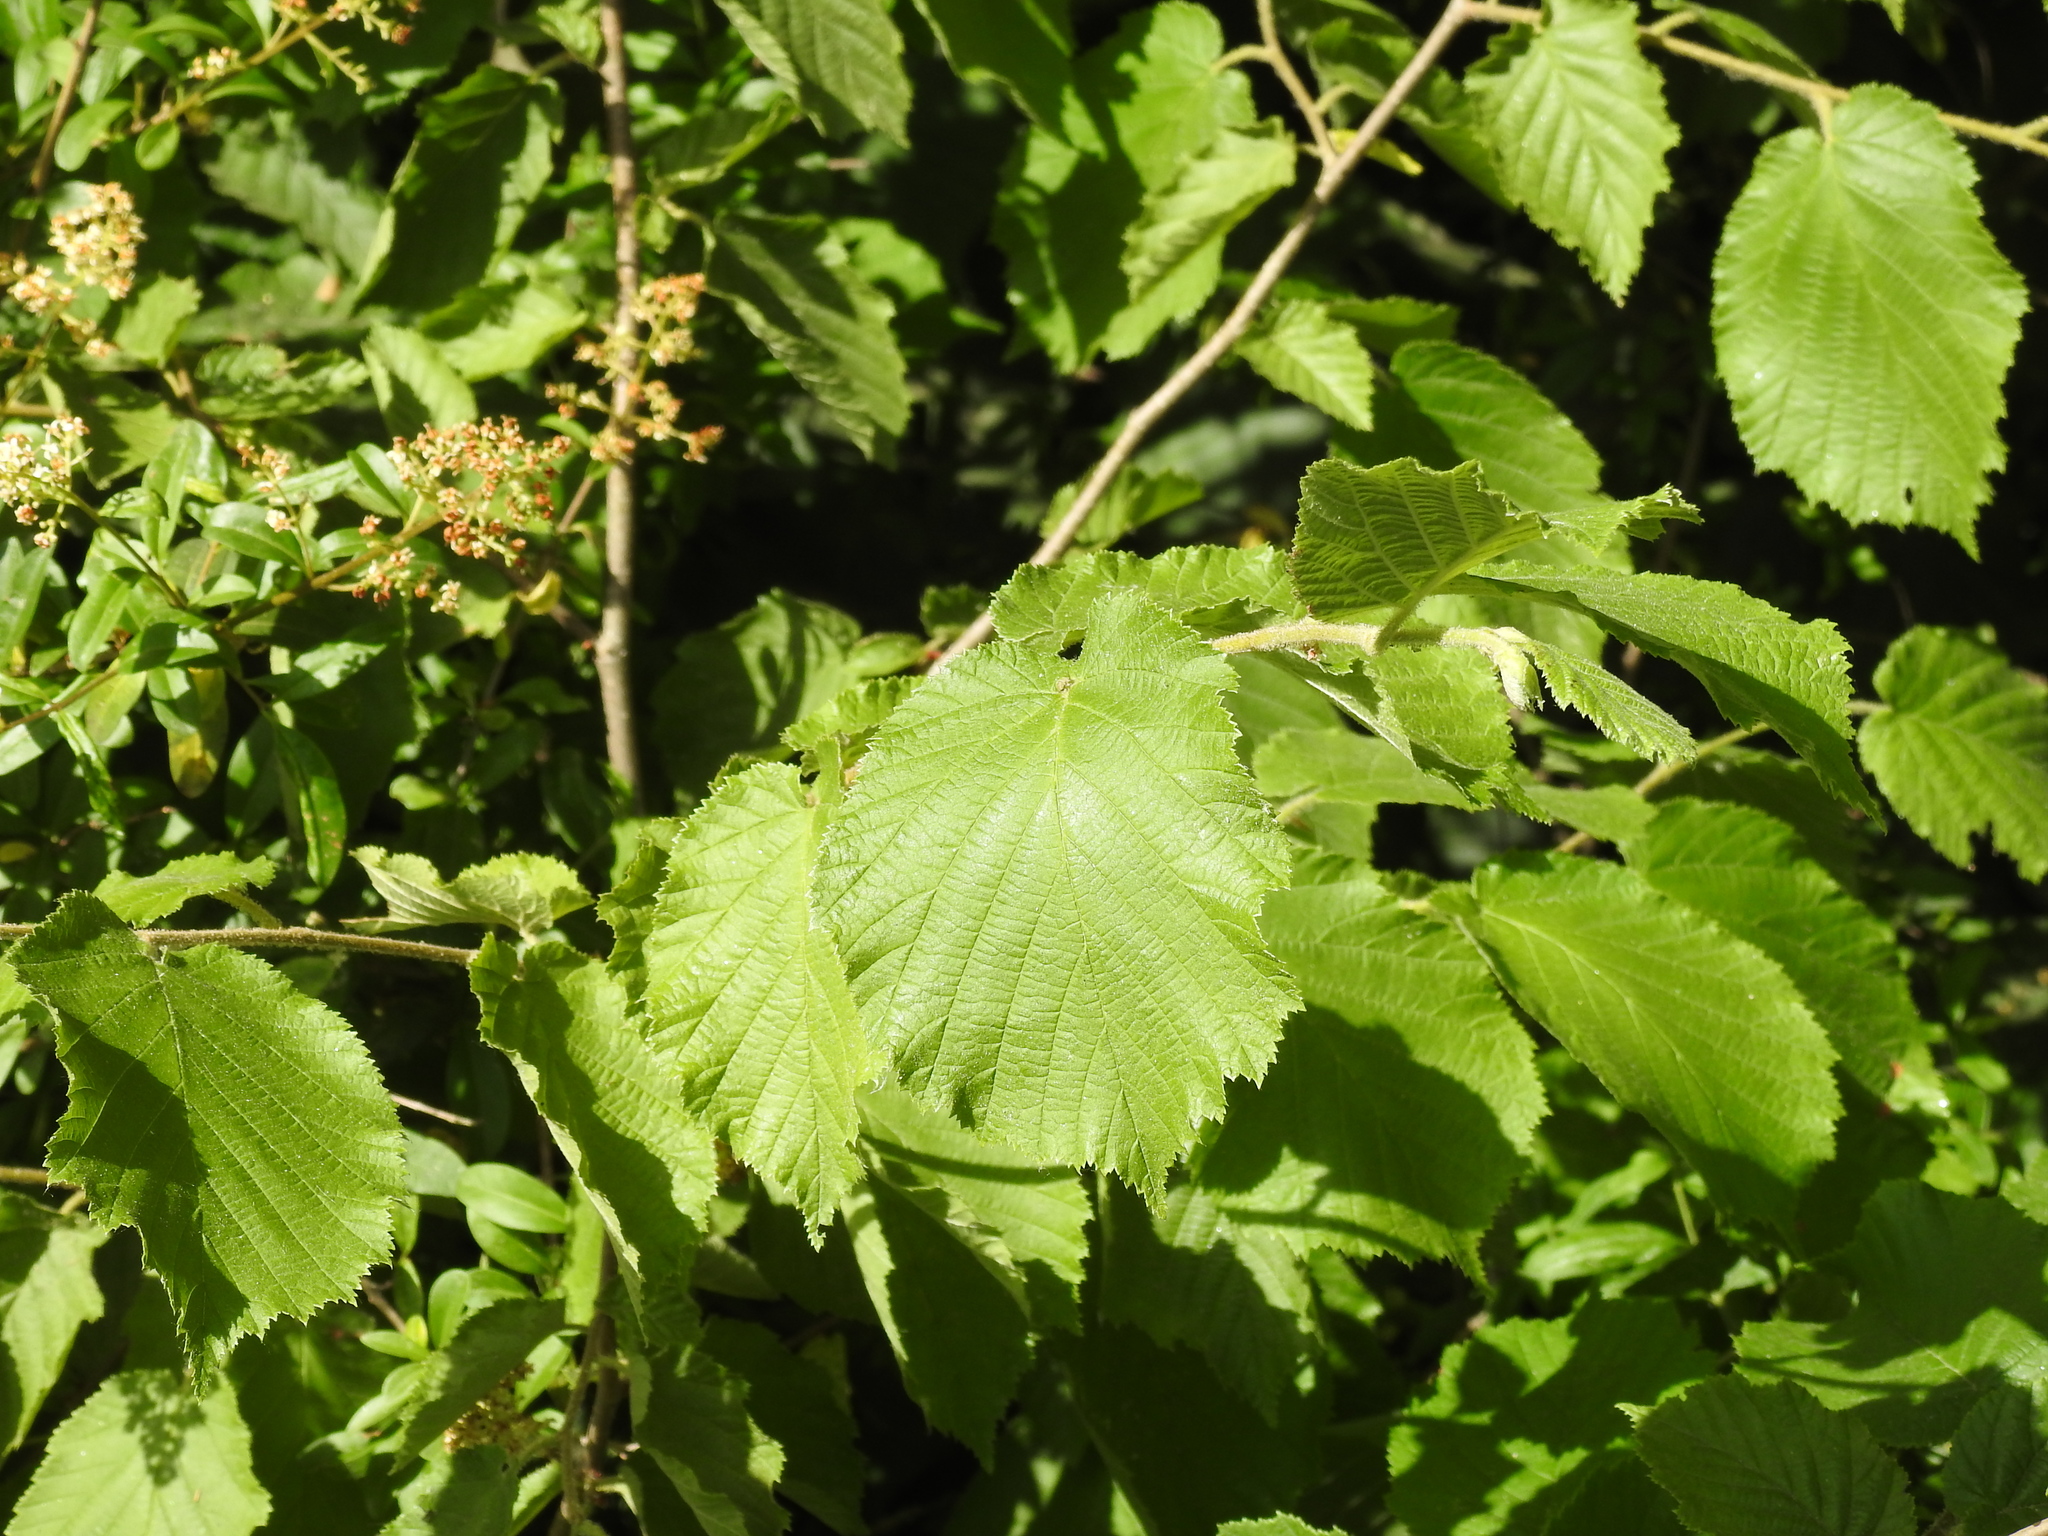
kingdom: Plantae
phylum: Tracheophyta
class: Magnoliopsida
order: Fagales
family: Betulaceae
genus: Corylus
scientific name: Corylus avellana
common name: European hazel
